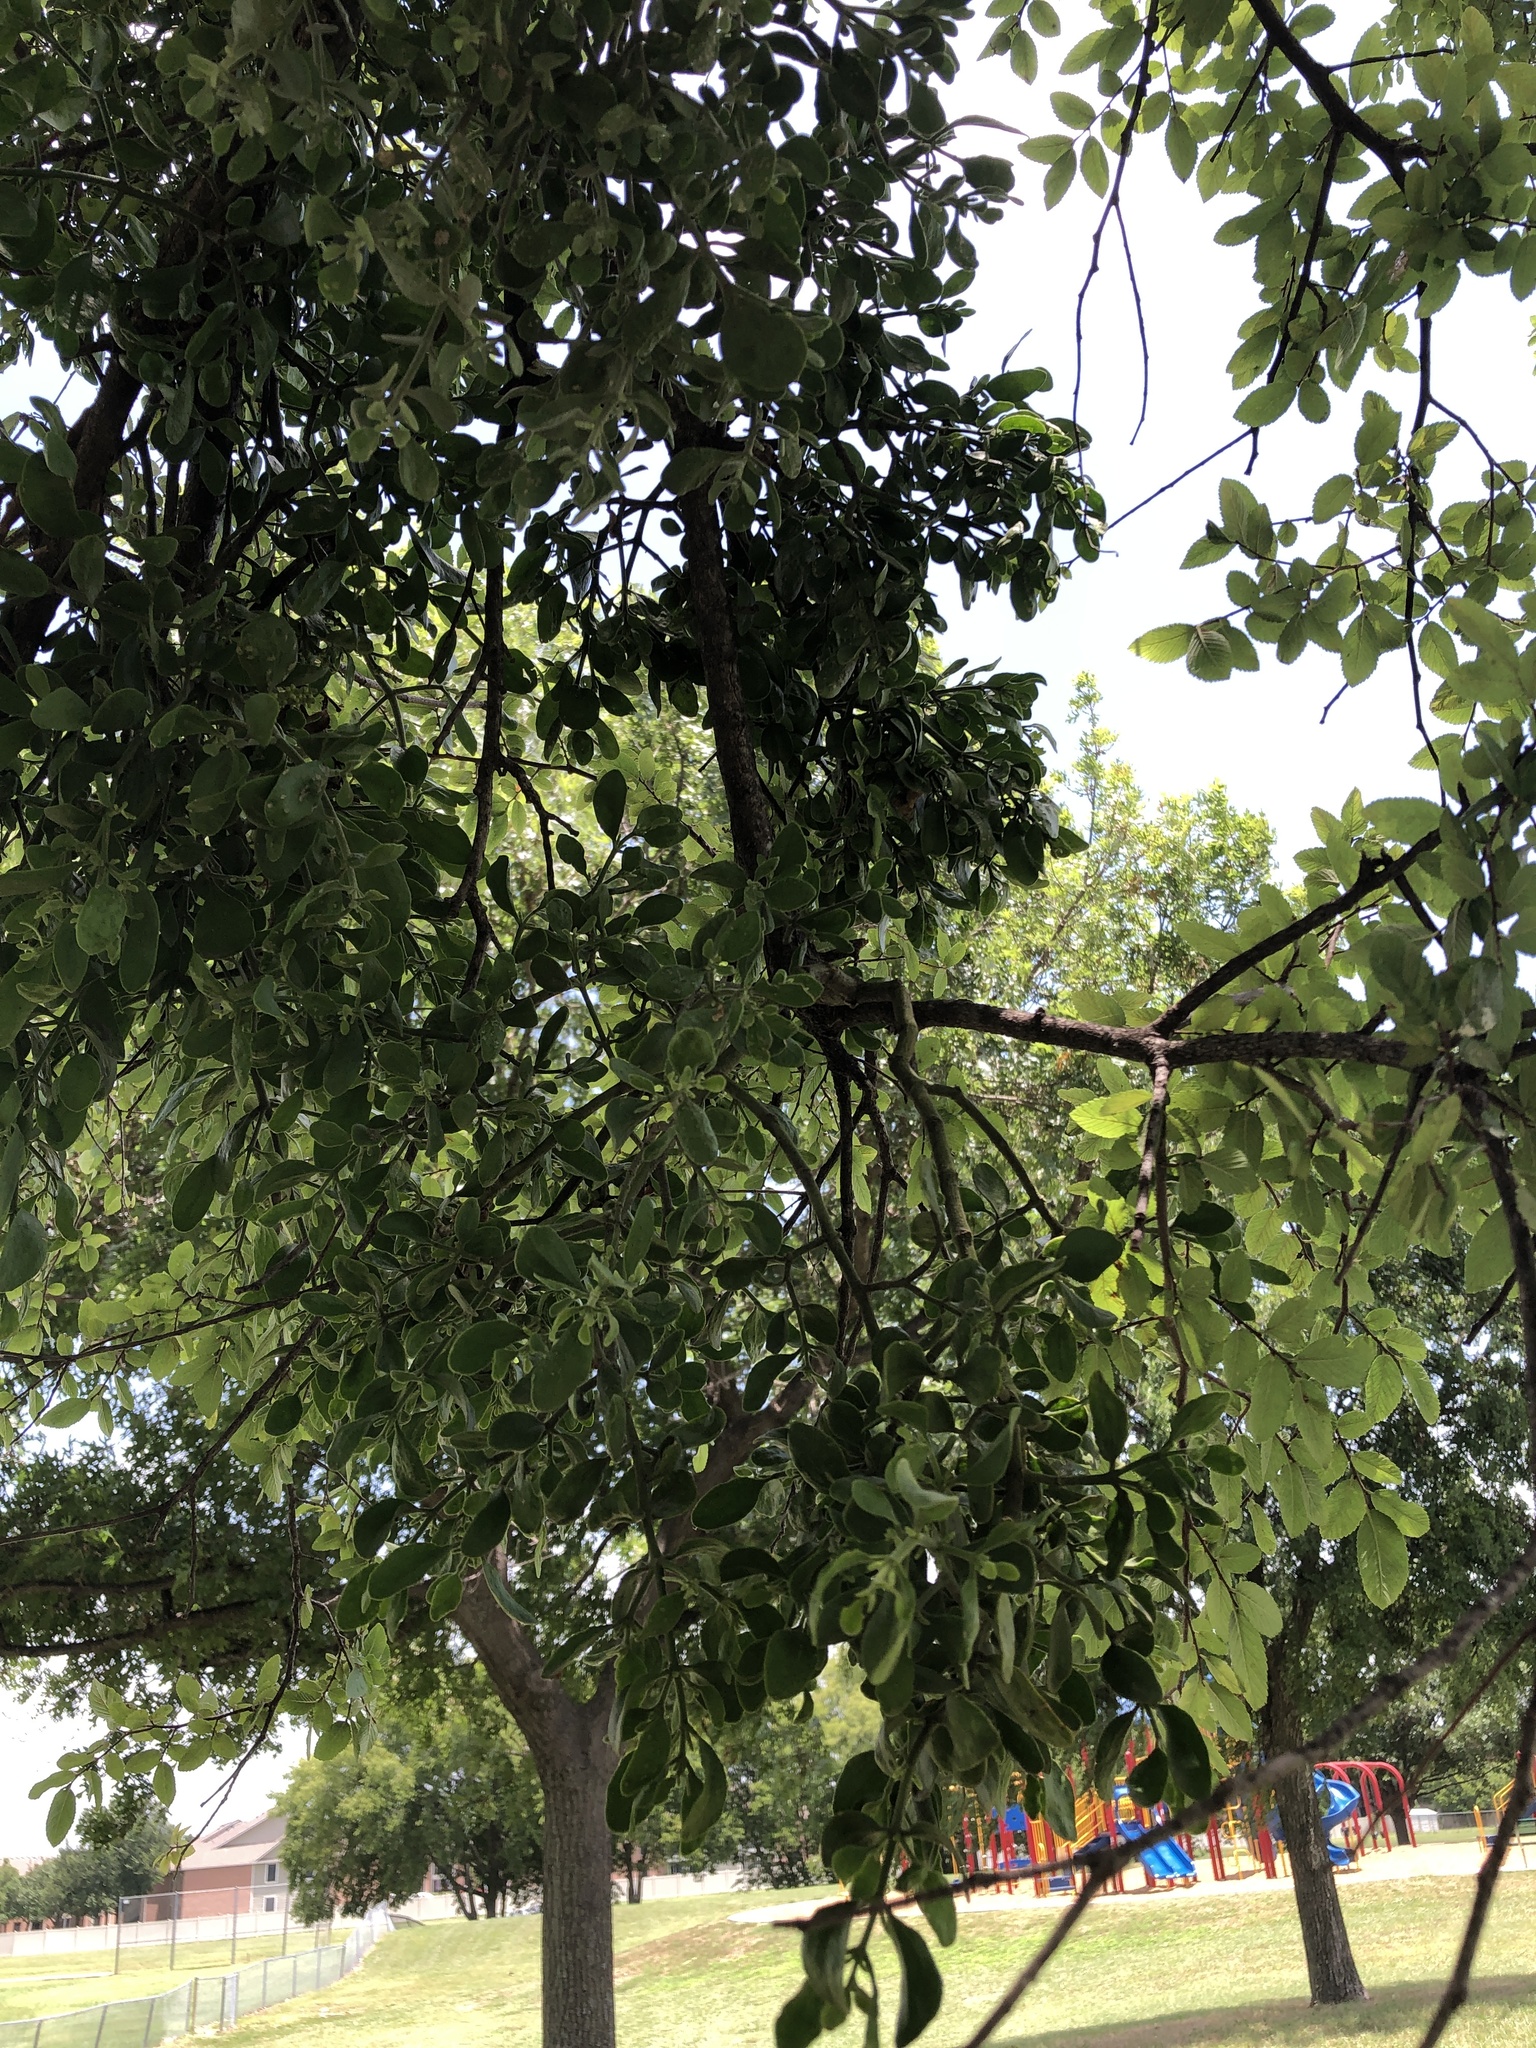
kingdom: Plantae
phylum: Tracheophyta
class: Magnoliopsida
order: Santalales
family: Viscaceae
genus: Phoradendron
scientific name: Phoradendron leucarpum
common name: Pacific mistletoe
